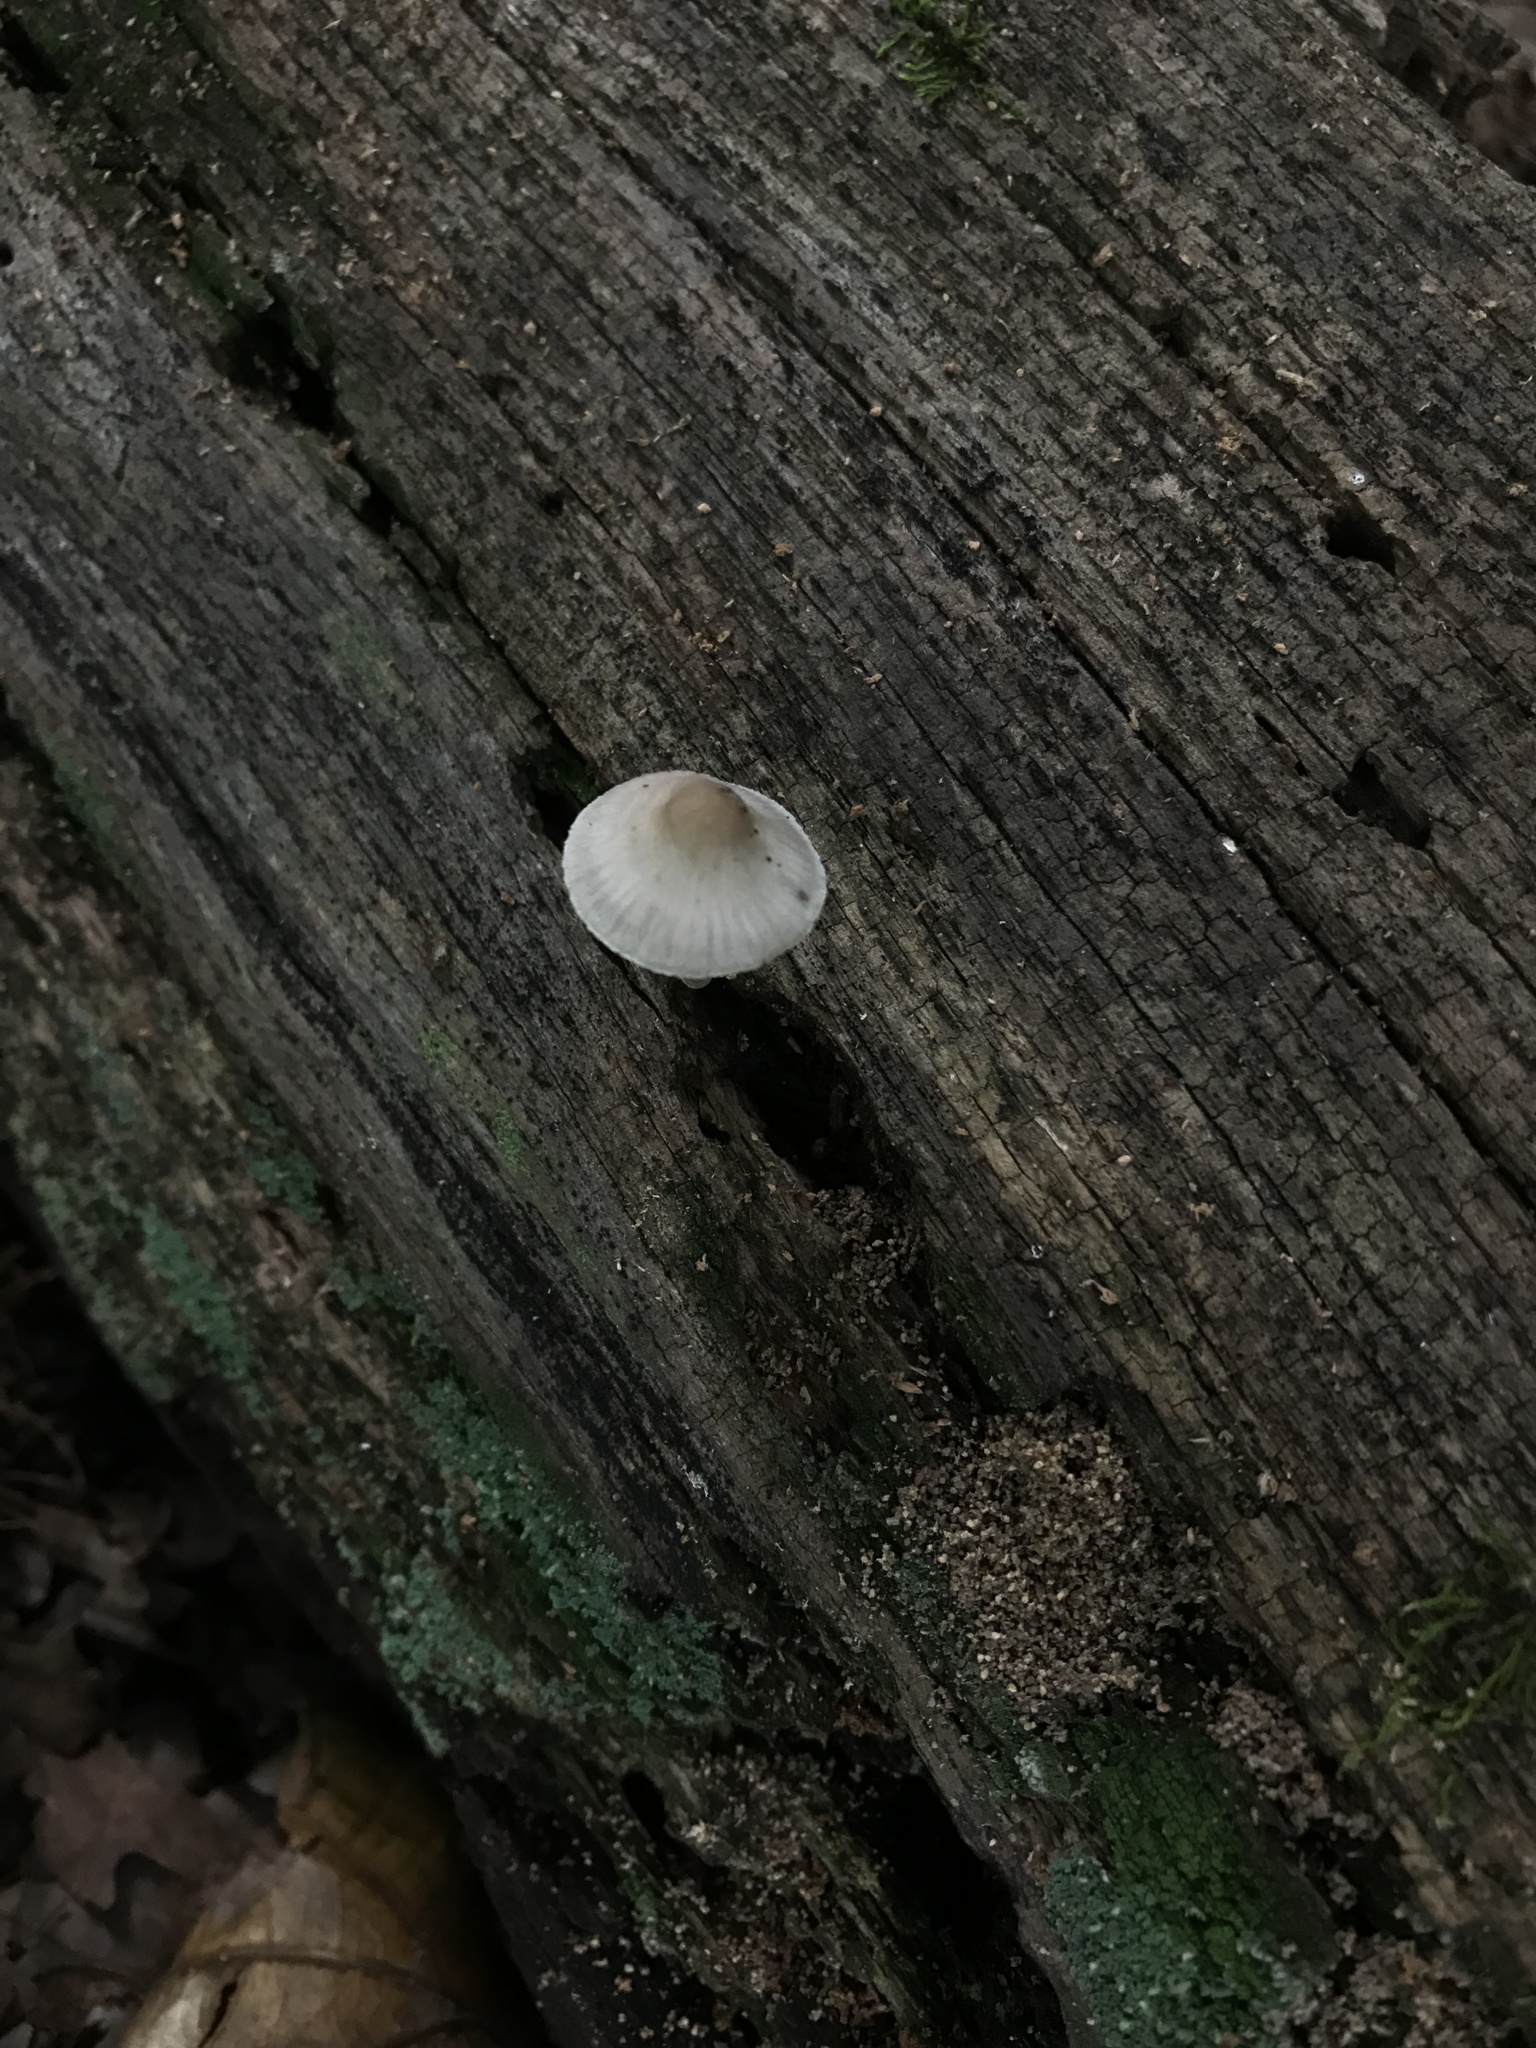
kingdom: Fungi
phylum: Basidiomycota
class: Agaricomycetes
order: Agaricales
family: Mycenaceae
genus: Mycena
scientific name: Mycena galericulata
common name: Bonnet mycena
